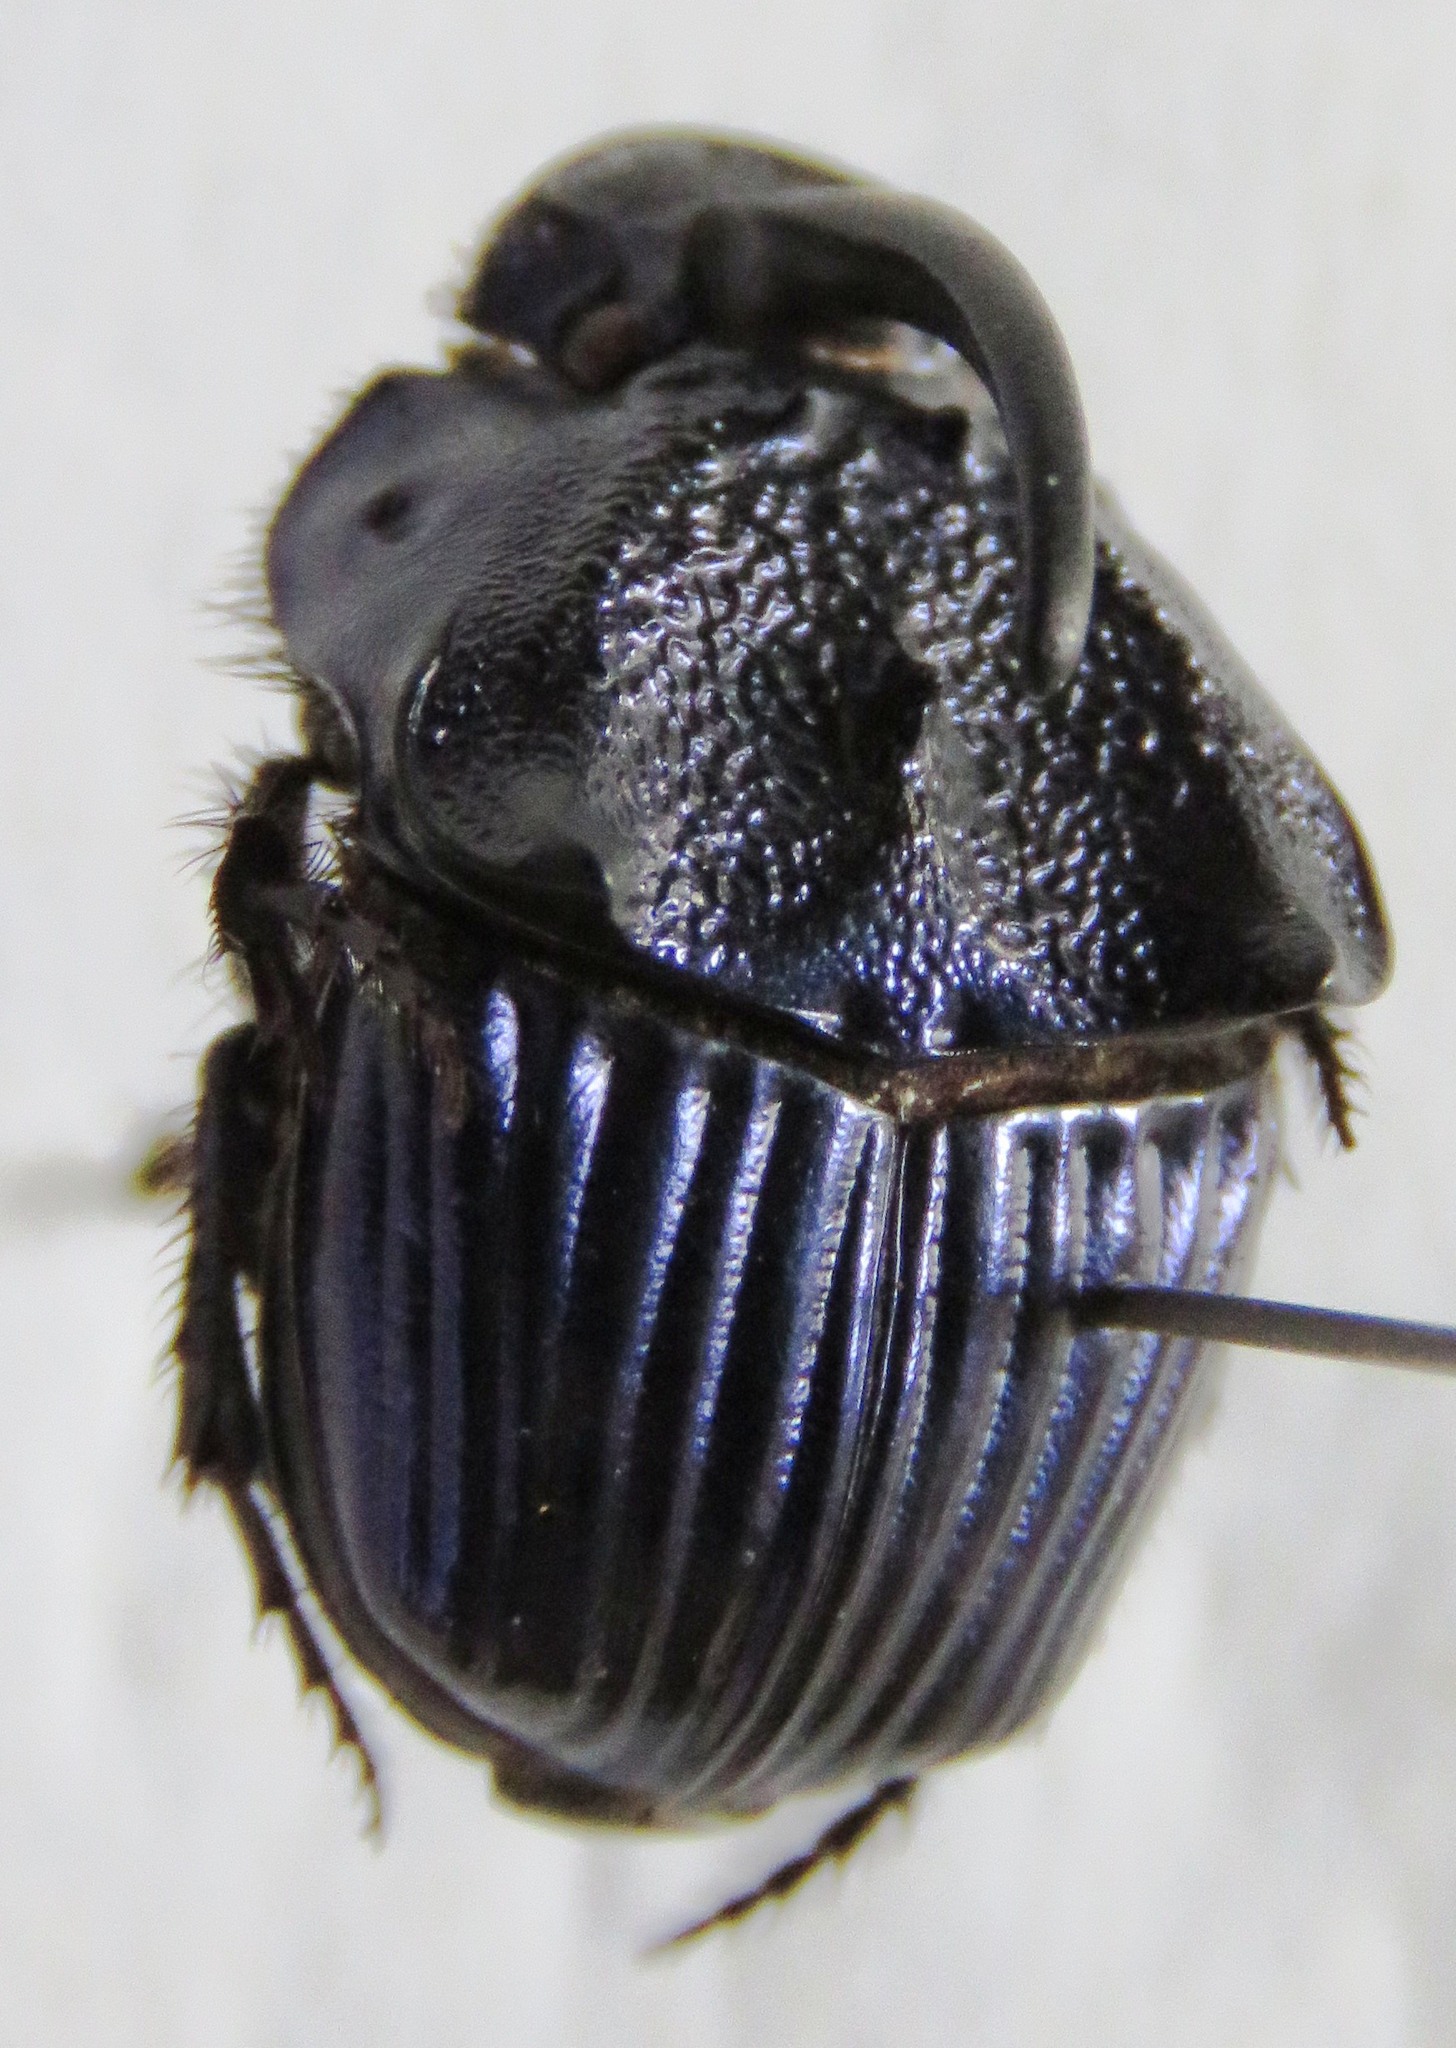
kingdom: Animalia
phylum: Arthropoda
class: Insecta
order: Coleoptera
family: Scarabaeidae
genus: Phanaeus
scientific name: Phanaeus eximius
